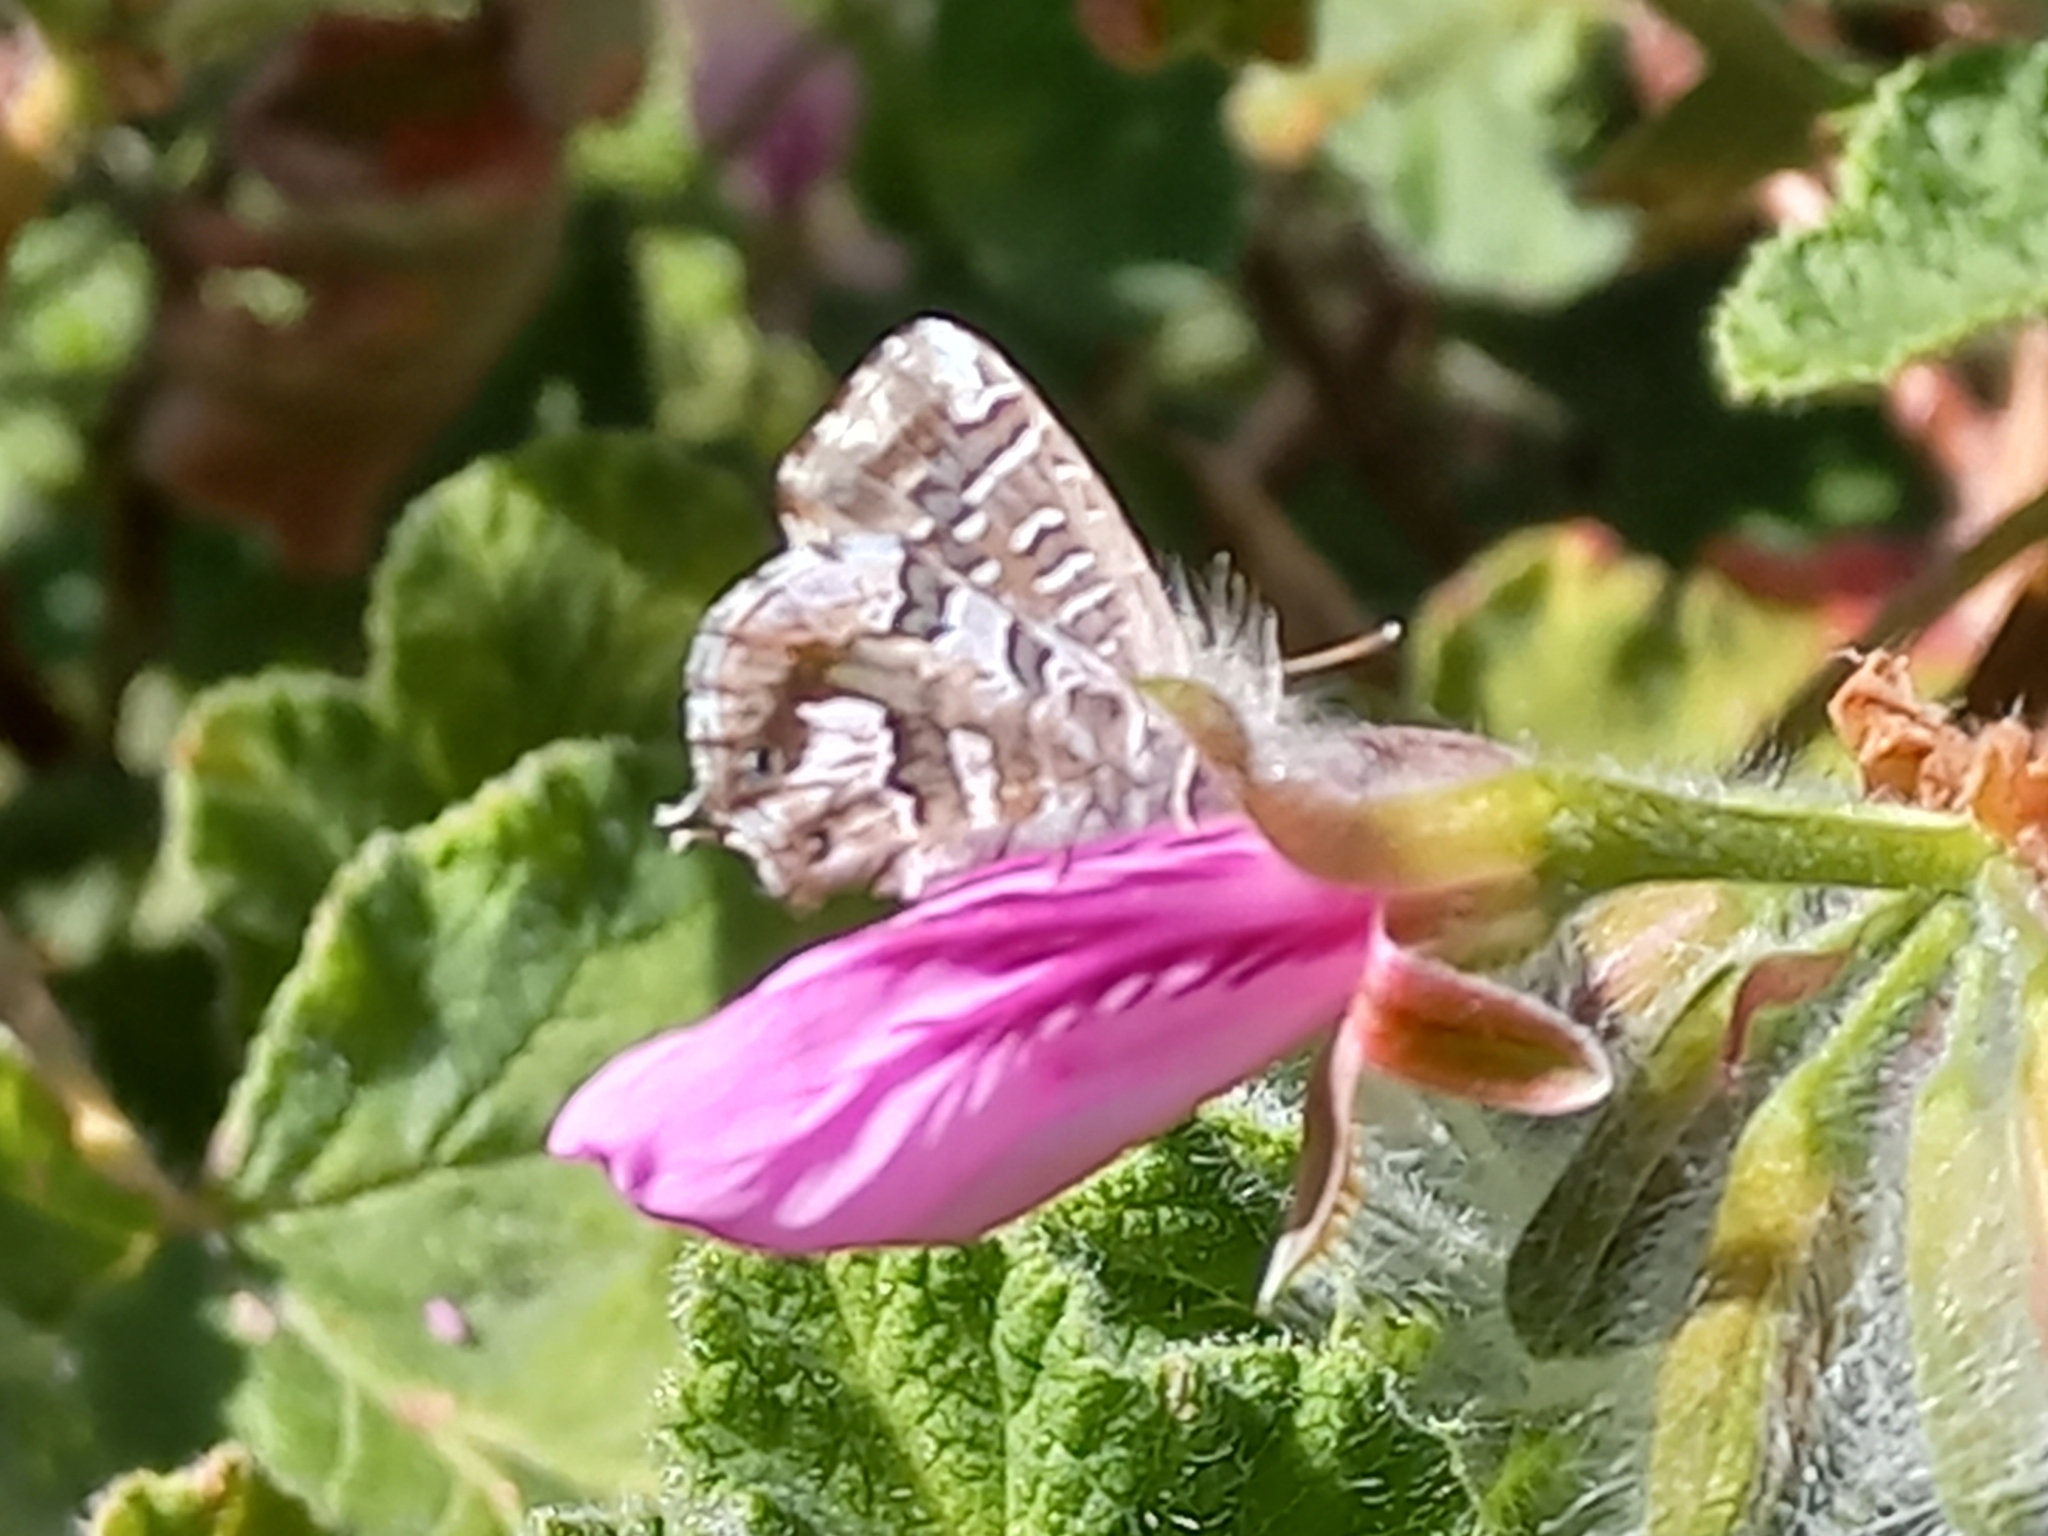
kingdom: Animalia
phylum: Arthropoda
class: Insecta
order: Lepidoptera
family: Lycaenidae
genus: Cacyreus
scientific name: Cacyreus marshalli
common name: Geranium bronze
